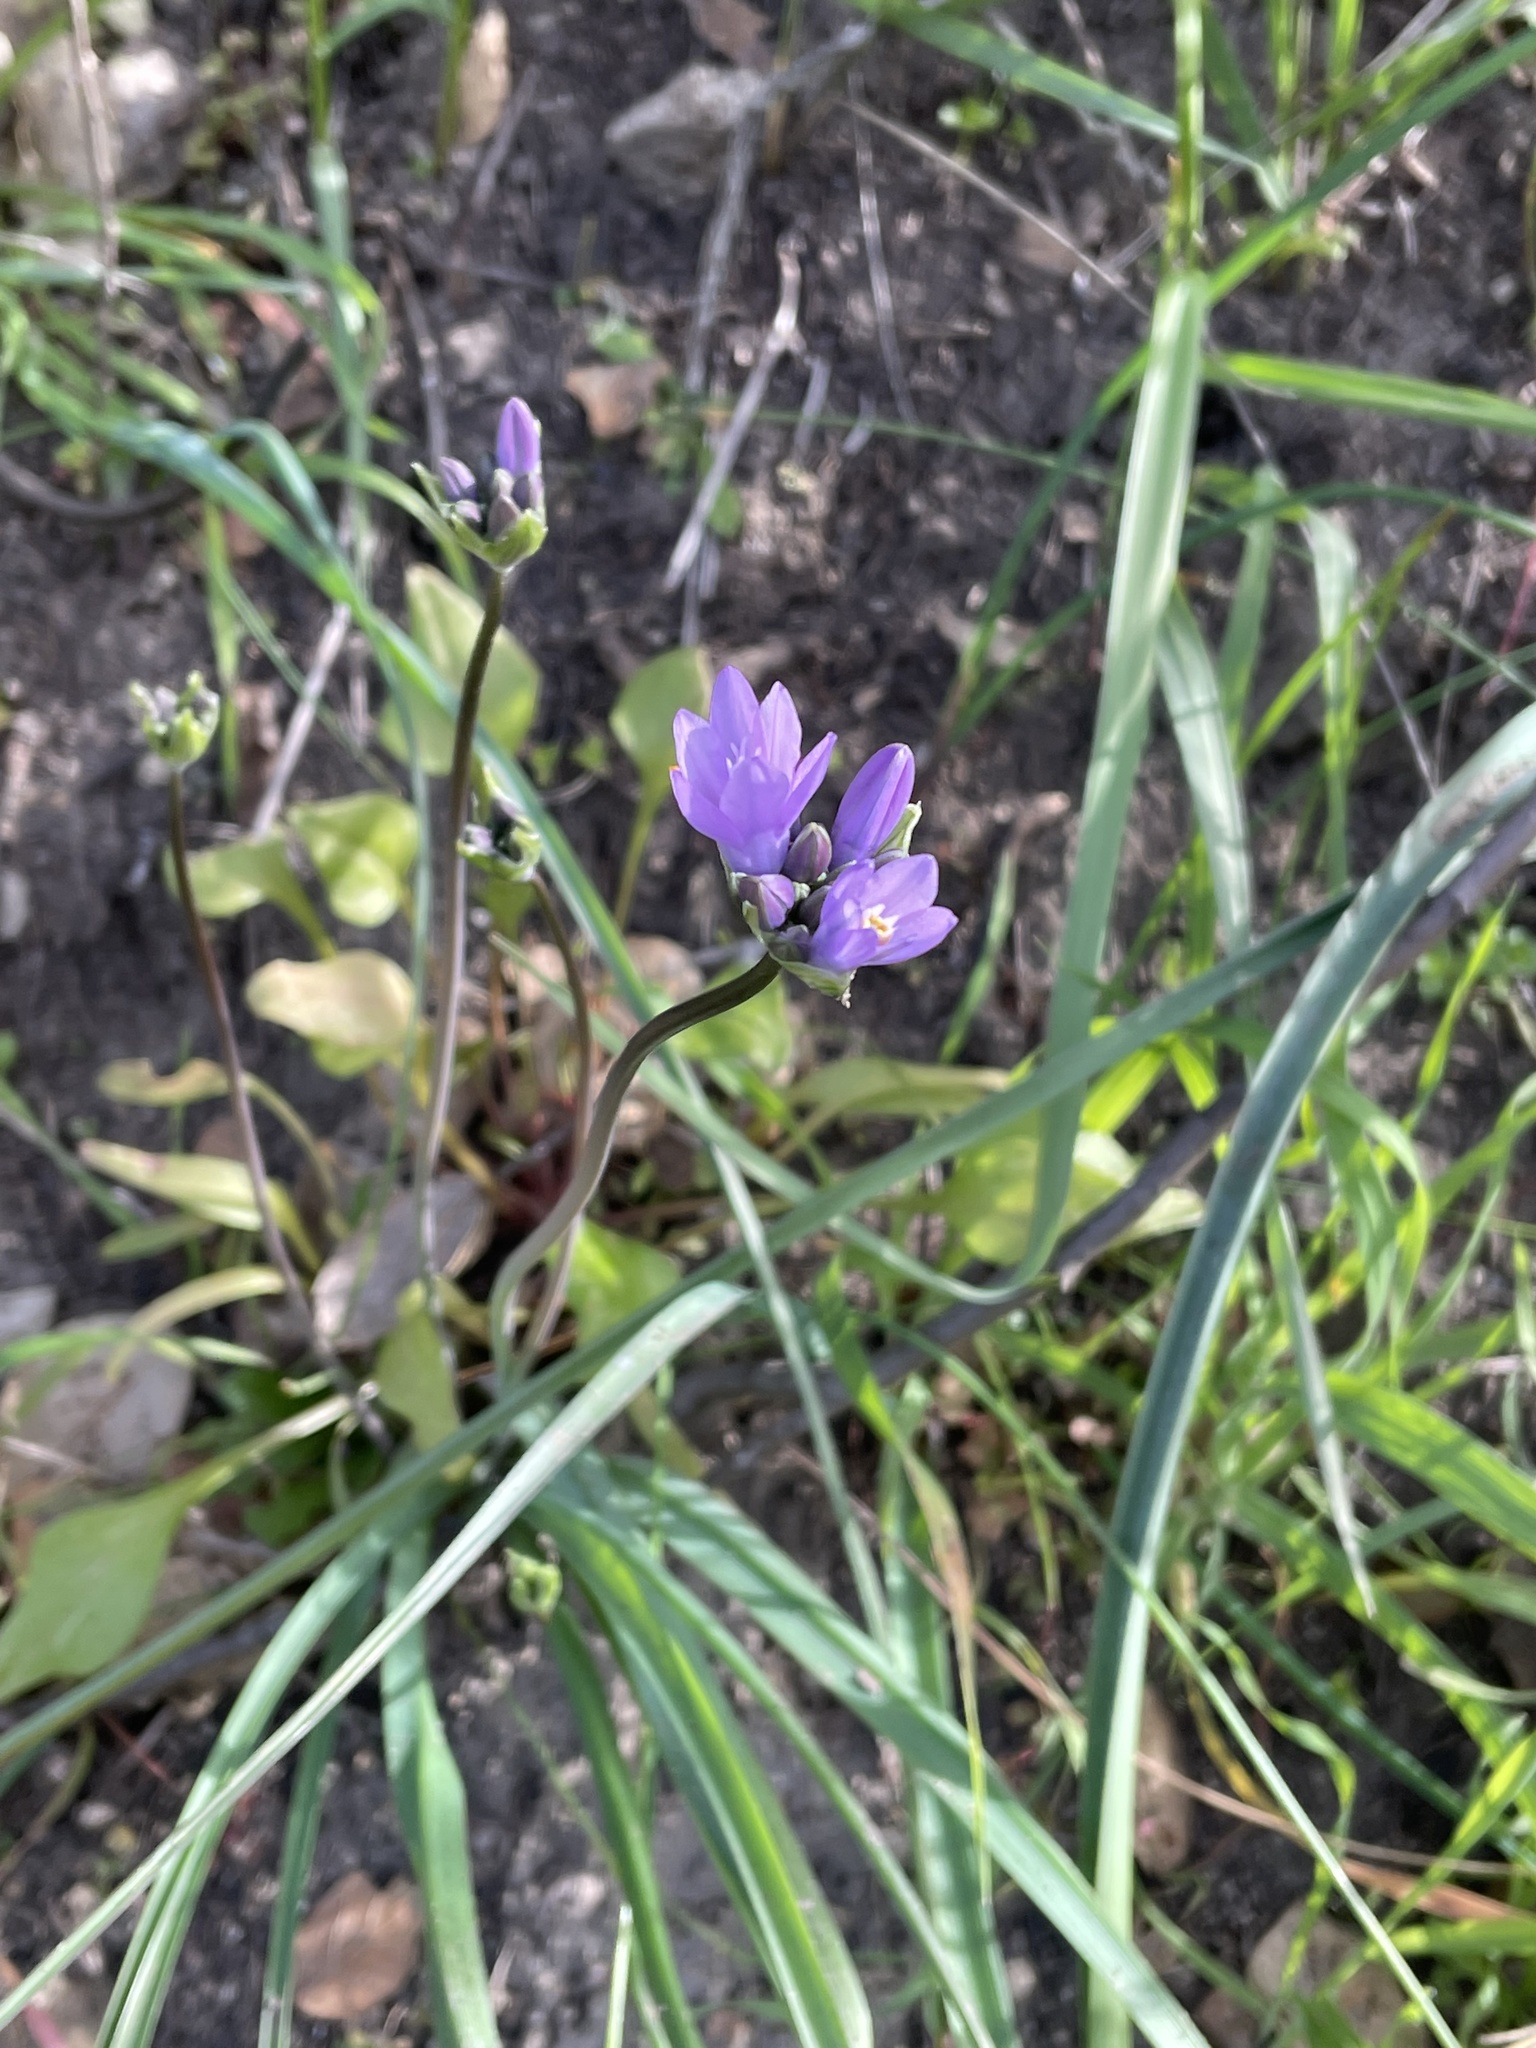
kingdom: Plantae
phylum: Tracheophyta
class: Liliopsida
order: Asparagales
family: Asparagaceae
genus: Dipterostemon
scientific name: Dipterostemon capitatus
